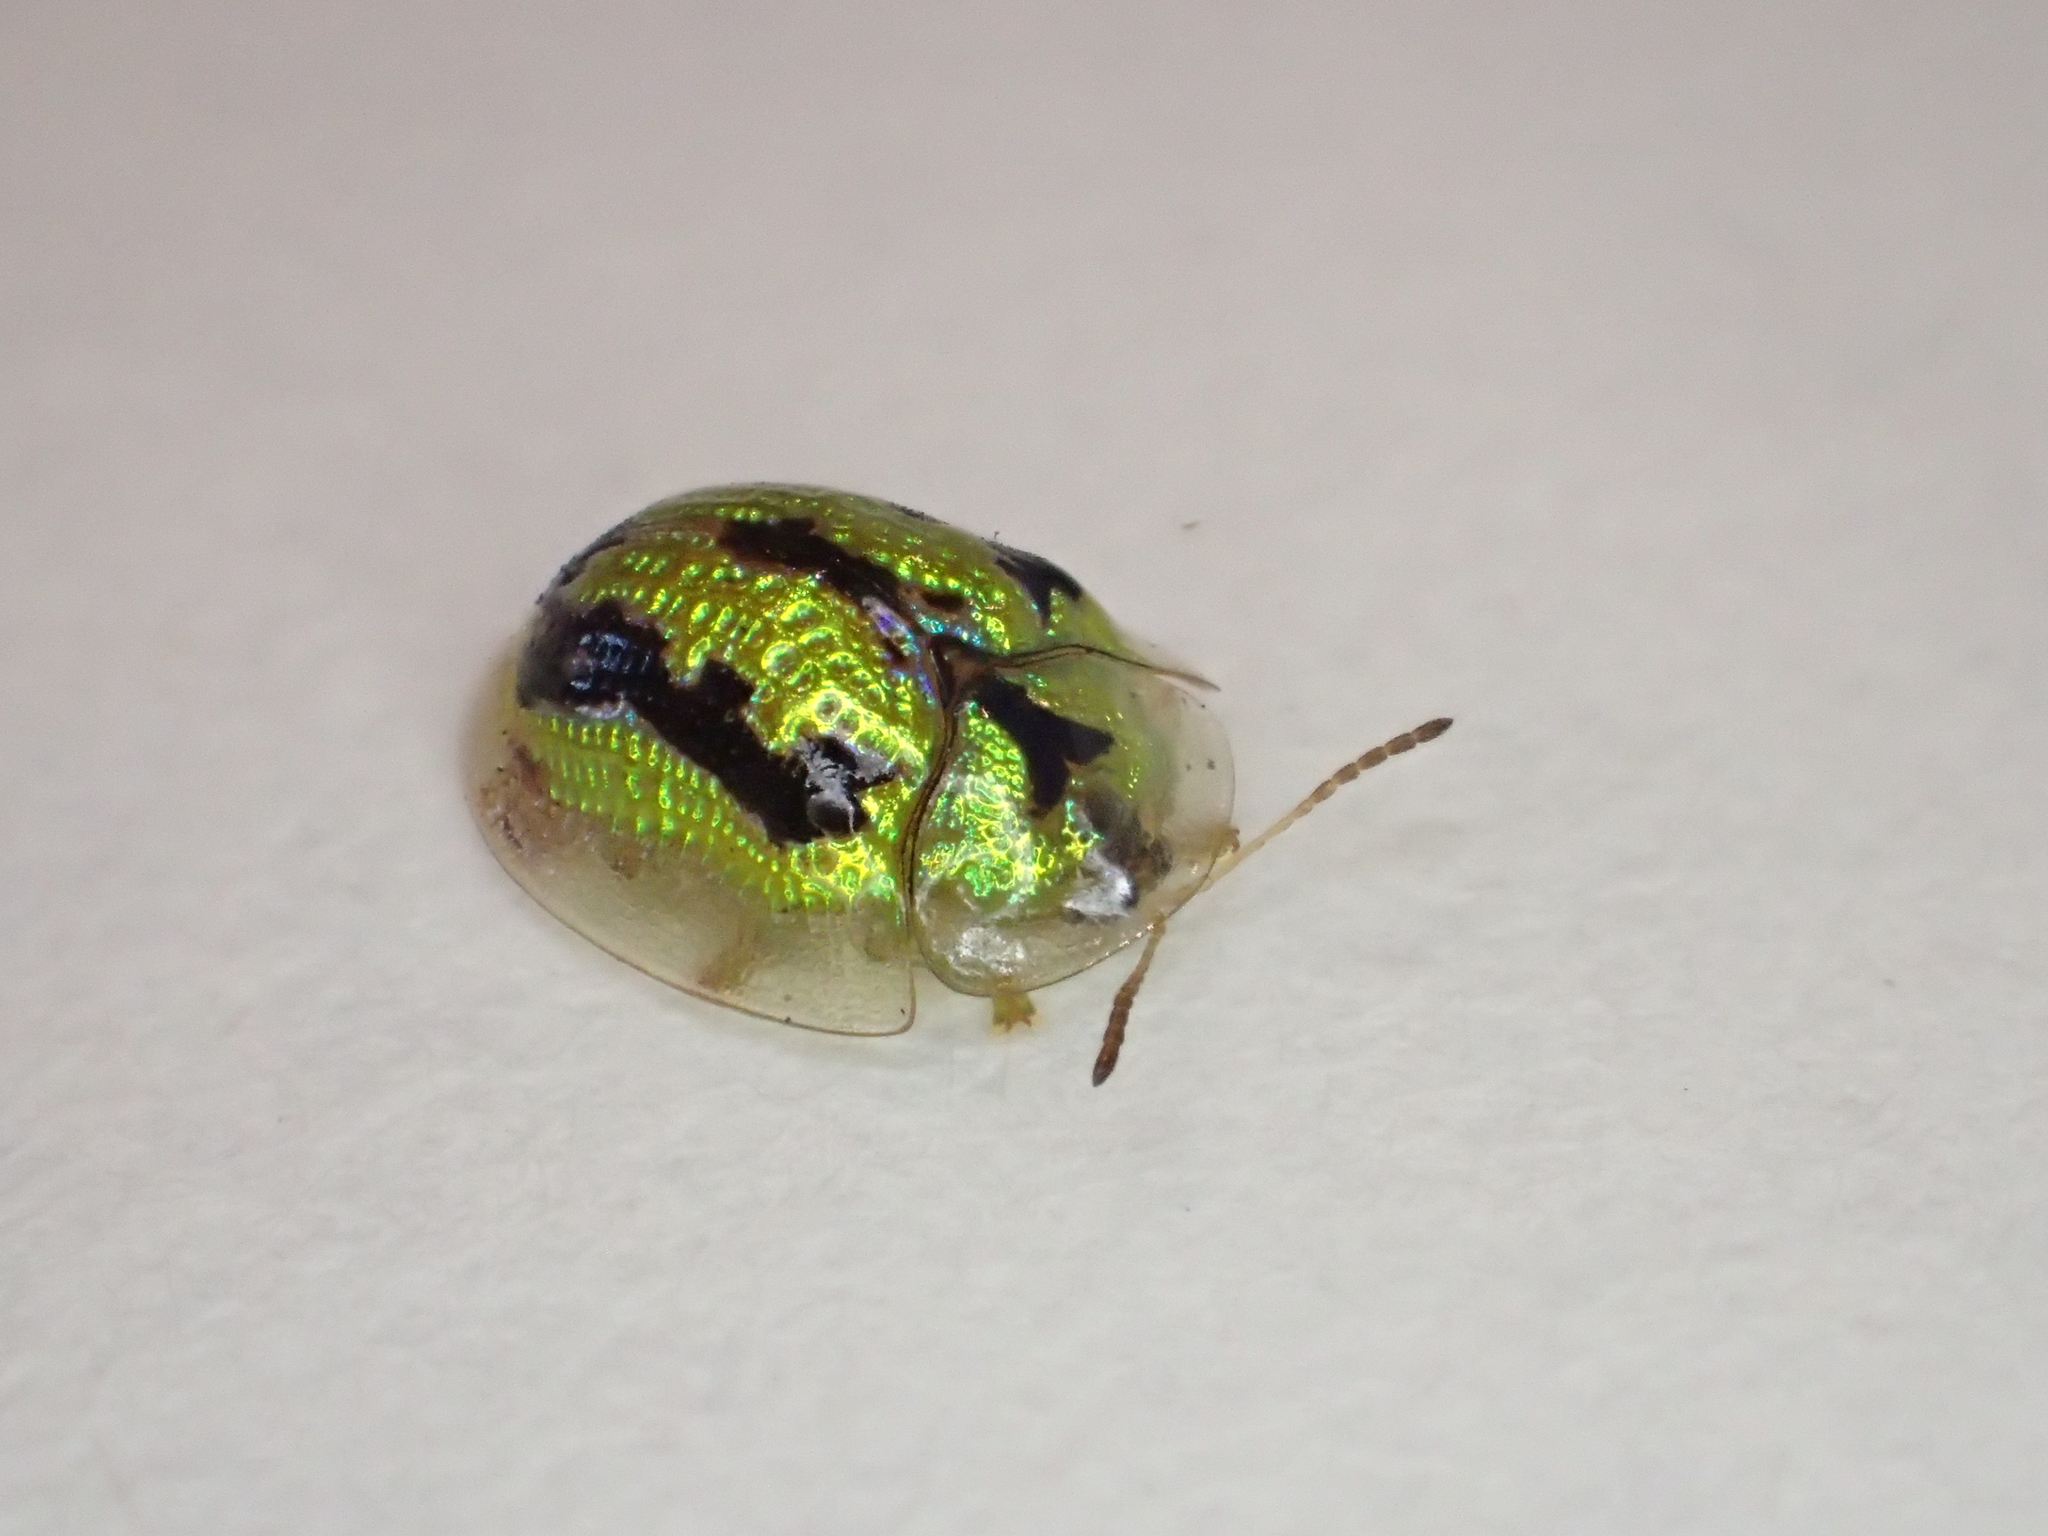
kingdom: Animalia
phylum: Arthropoda
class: Insecta
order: Coleoptera
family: Chrysomelidae
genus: Cassida
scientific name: Cassida circumdata
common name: Tortoise beetle
